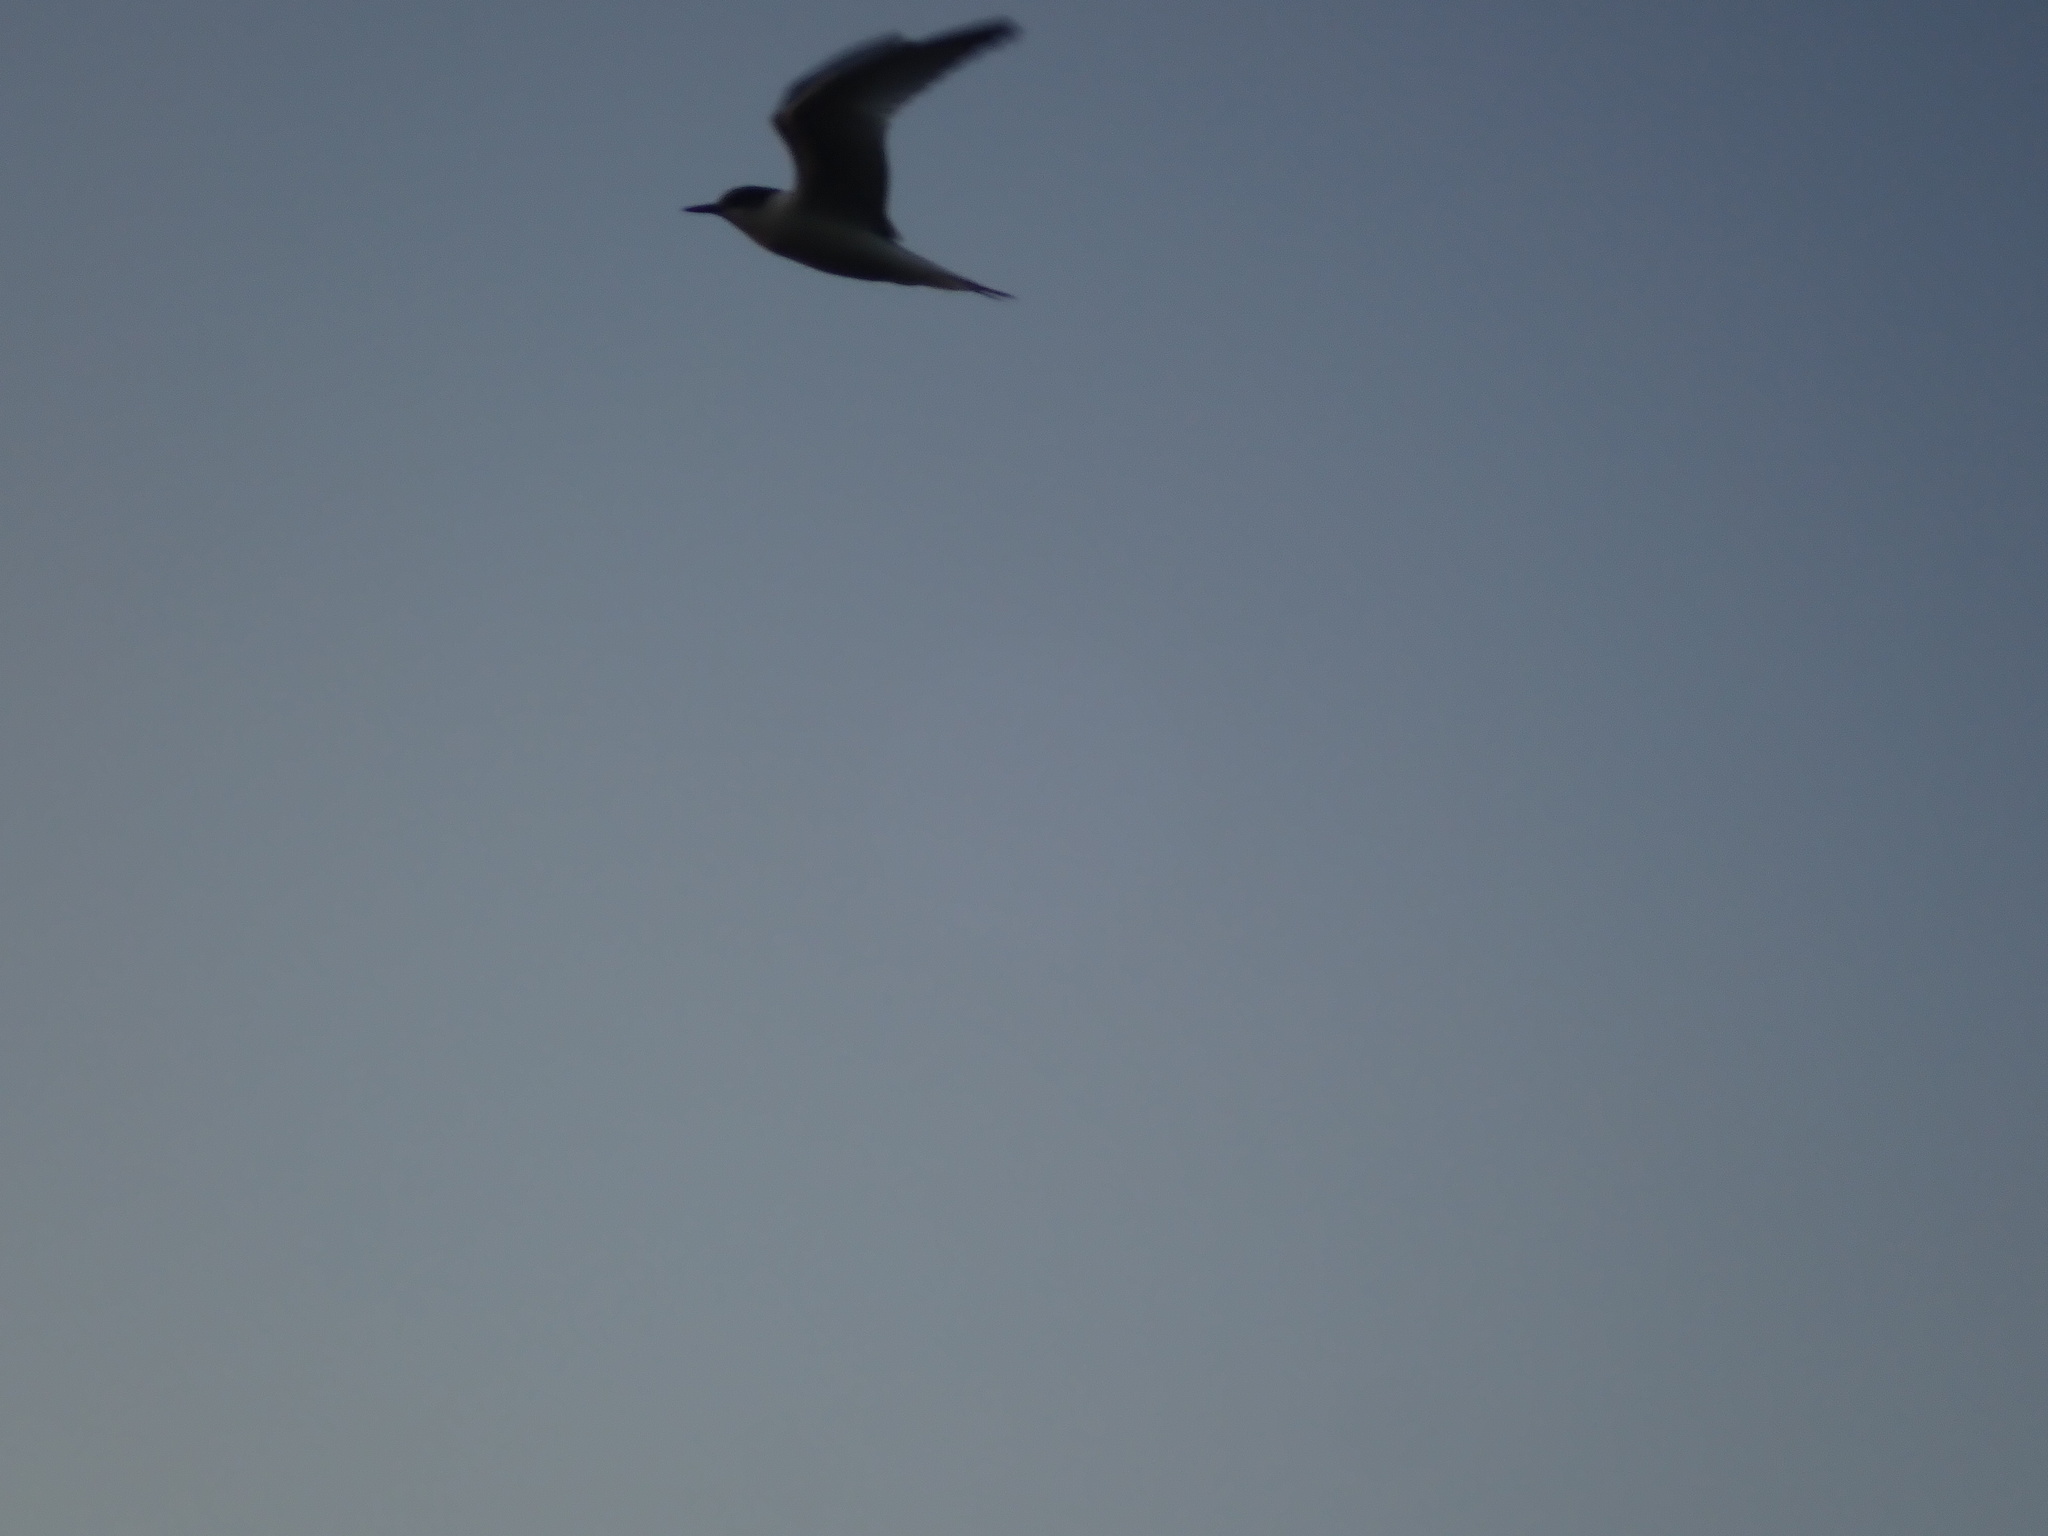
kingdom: Animalia
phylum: Chordata
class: Aves
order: Charadriiformes
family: Laridae
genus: Sterna
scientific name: Sterna striata
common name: White-fronted tern
